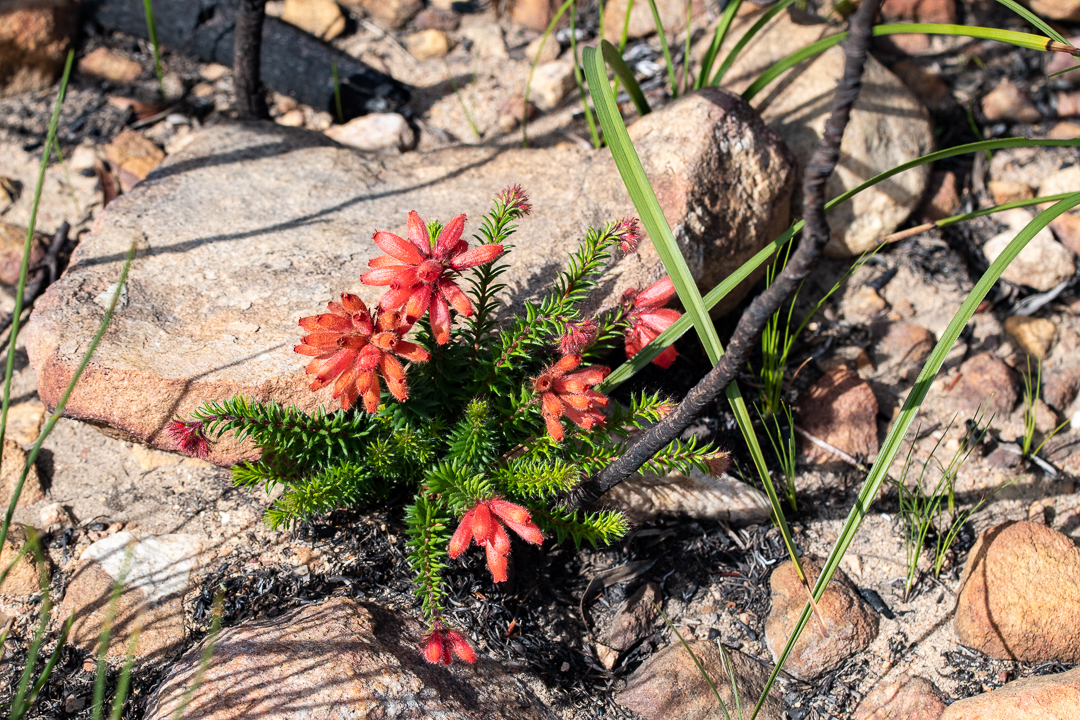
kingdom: Plantae
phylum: Tracheophyta
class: Magnoliopsida
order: Ericales
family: Ericaceae
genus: Erica
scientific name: Erica cerinthoides
